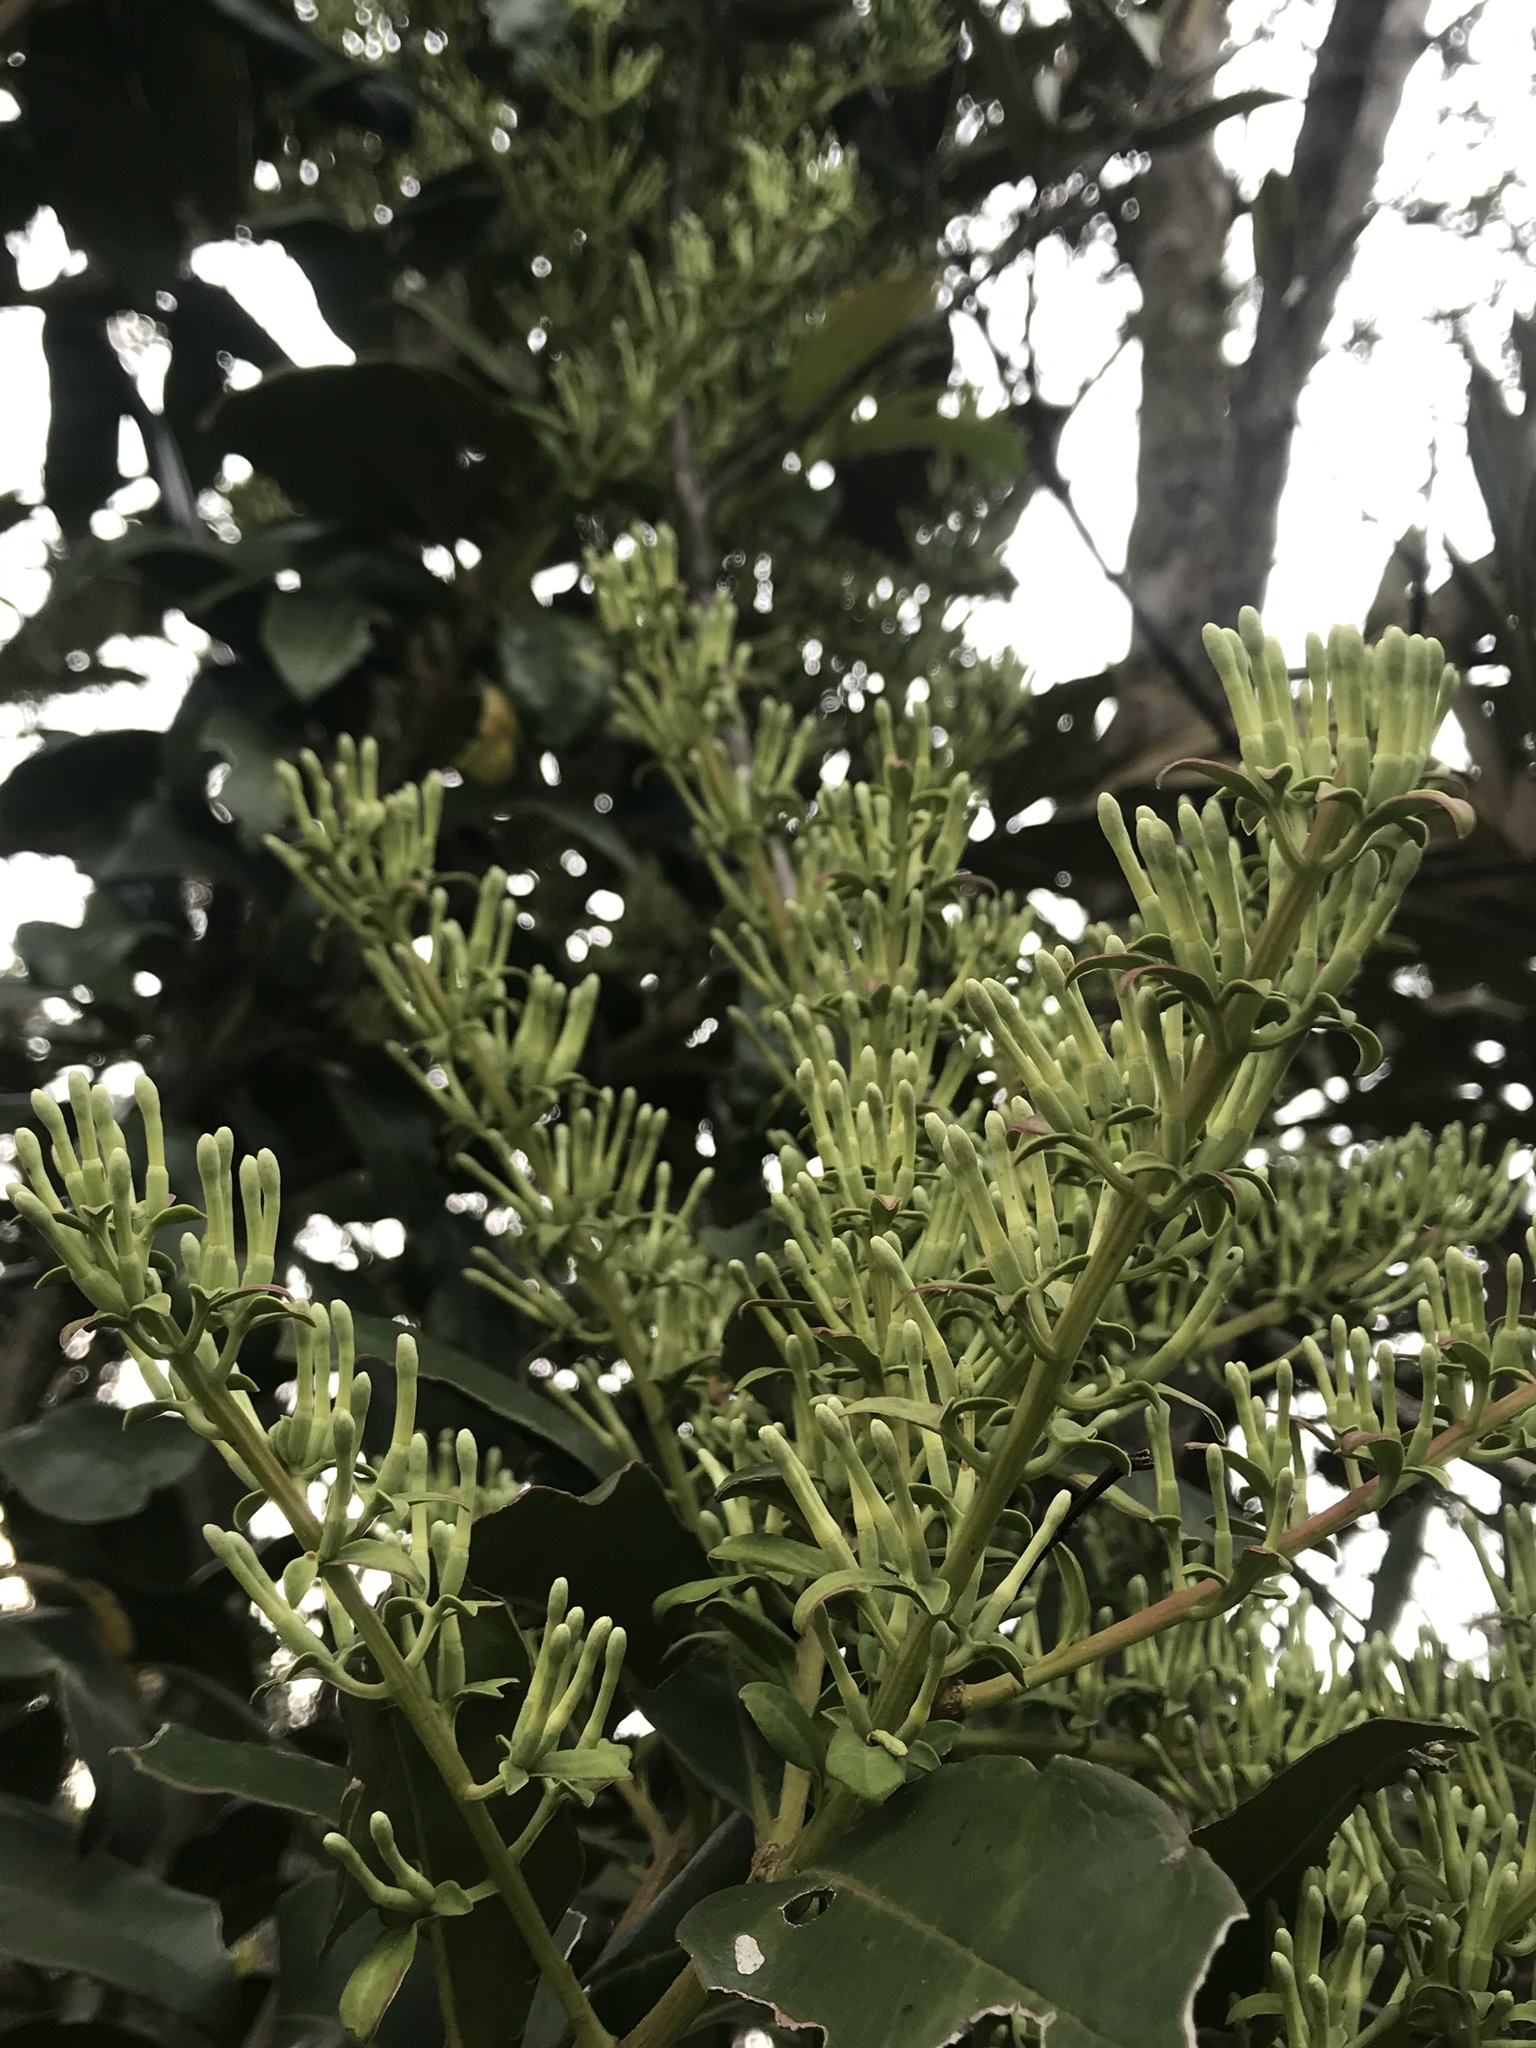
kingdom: Plantae
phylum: Tracheophyta
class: Magnoliopsida
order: Santalales
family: Loranthaceae
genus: Gaiadendron
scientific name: Gaiadendron punctatum
